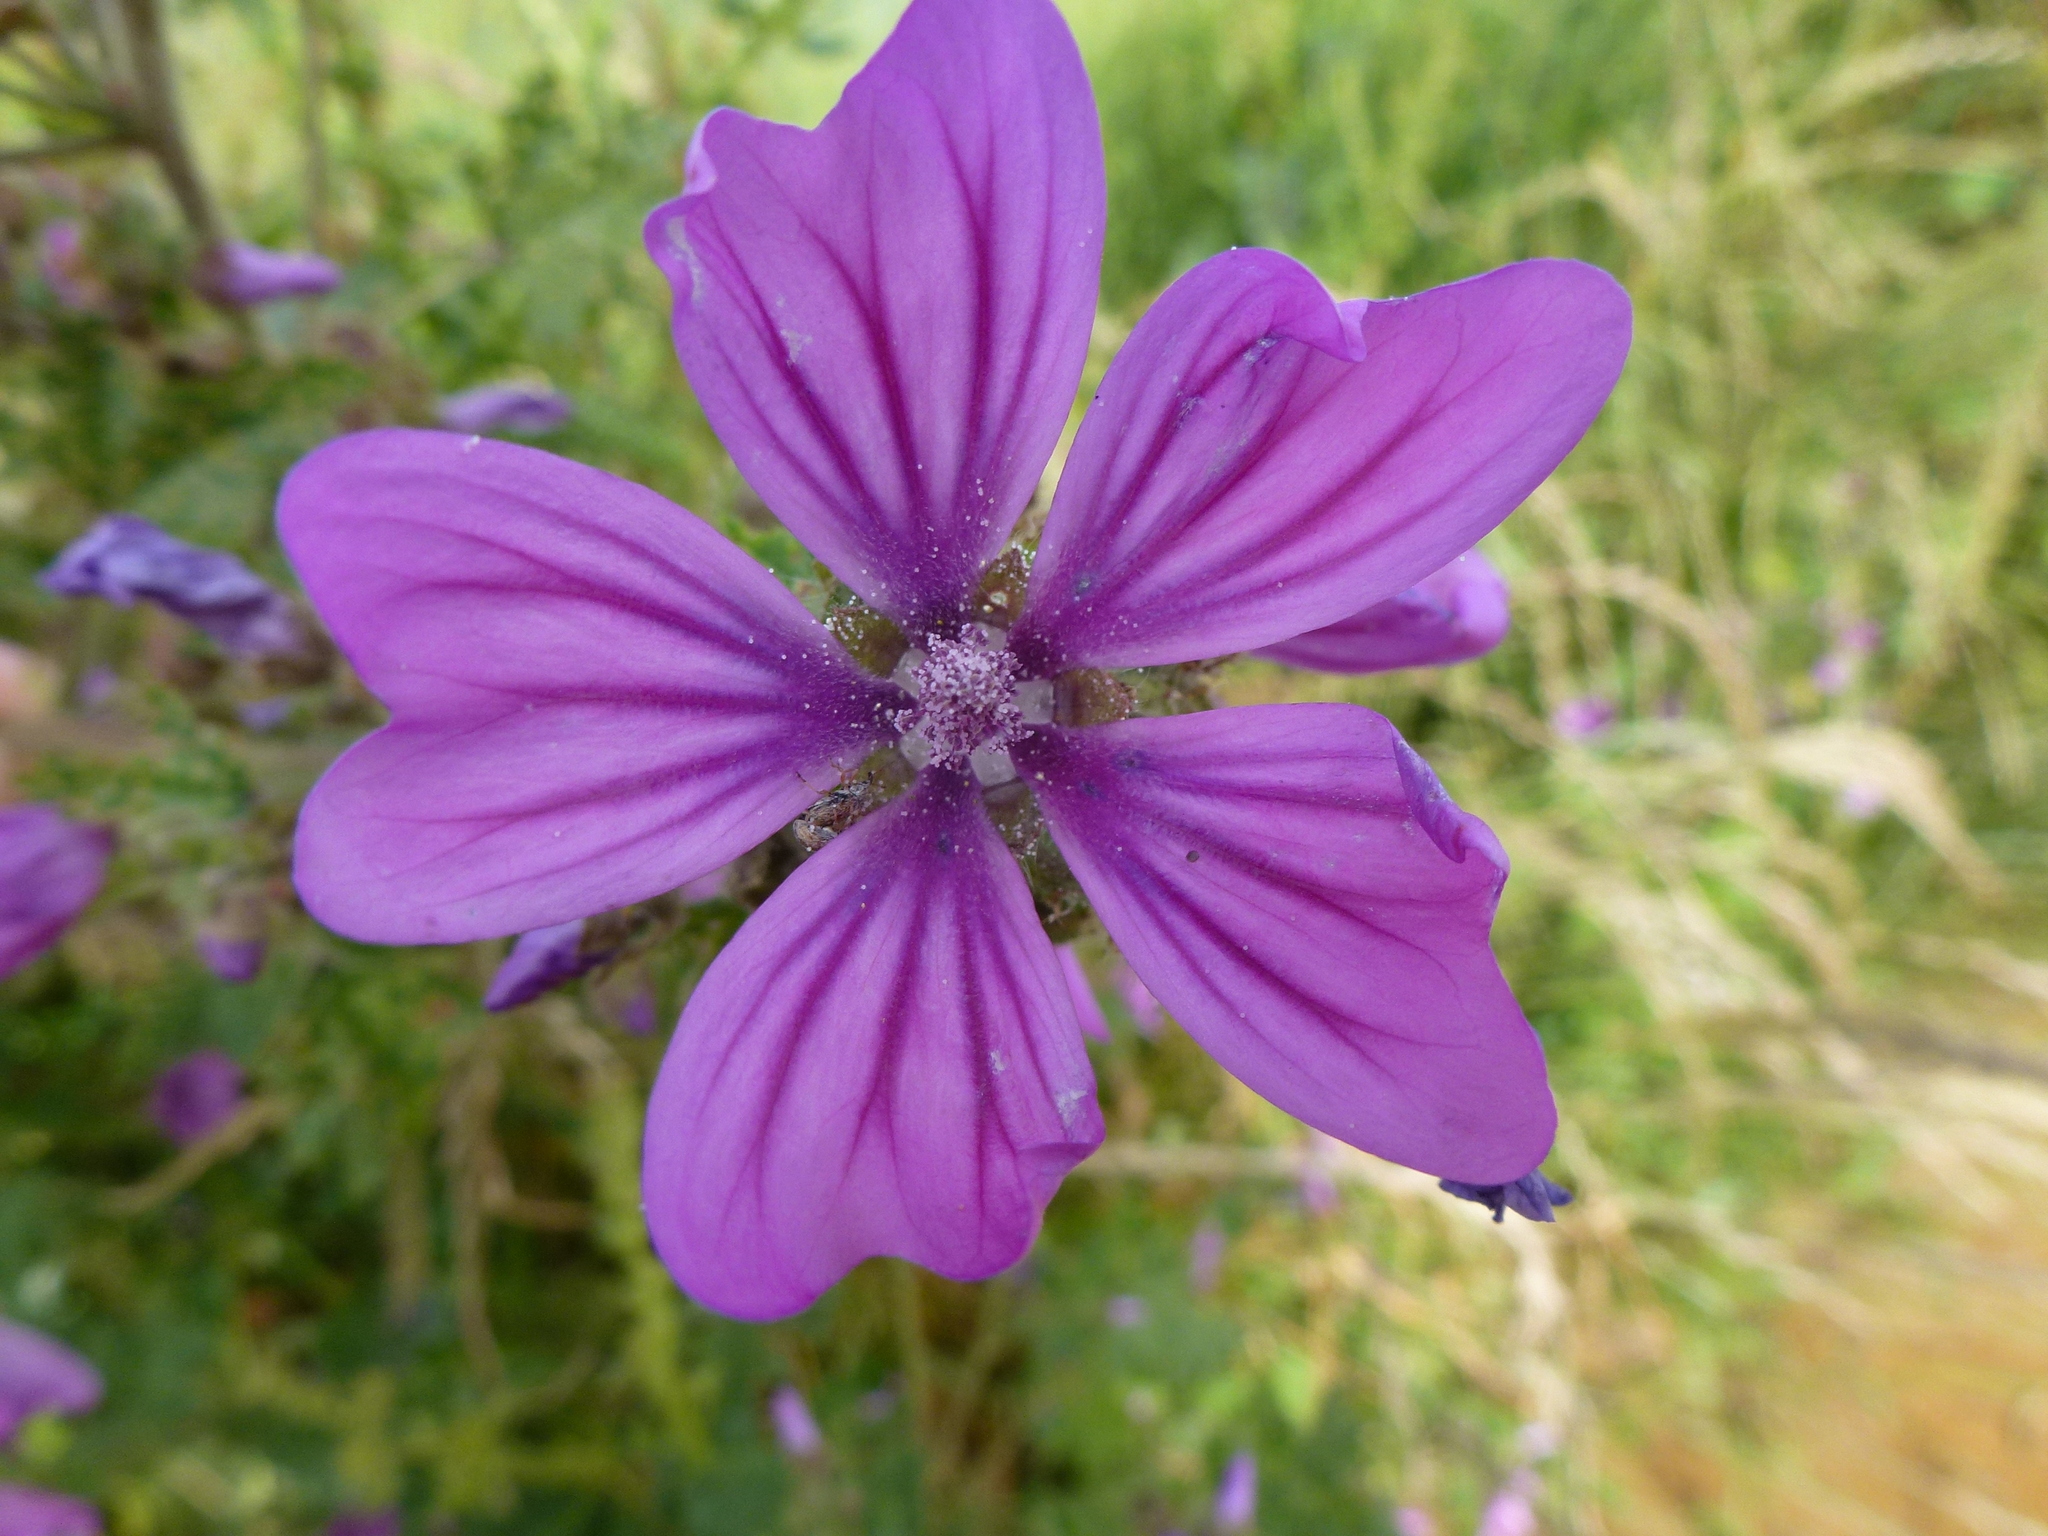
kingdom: Plantae
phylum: Tracheophyta
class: Magnoliopsida
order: Malvales
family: Malvaceae
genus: Malva
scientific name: Malva sylvestris
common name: Common mallow
